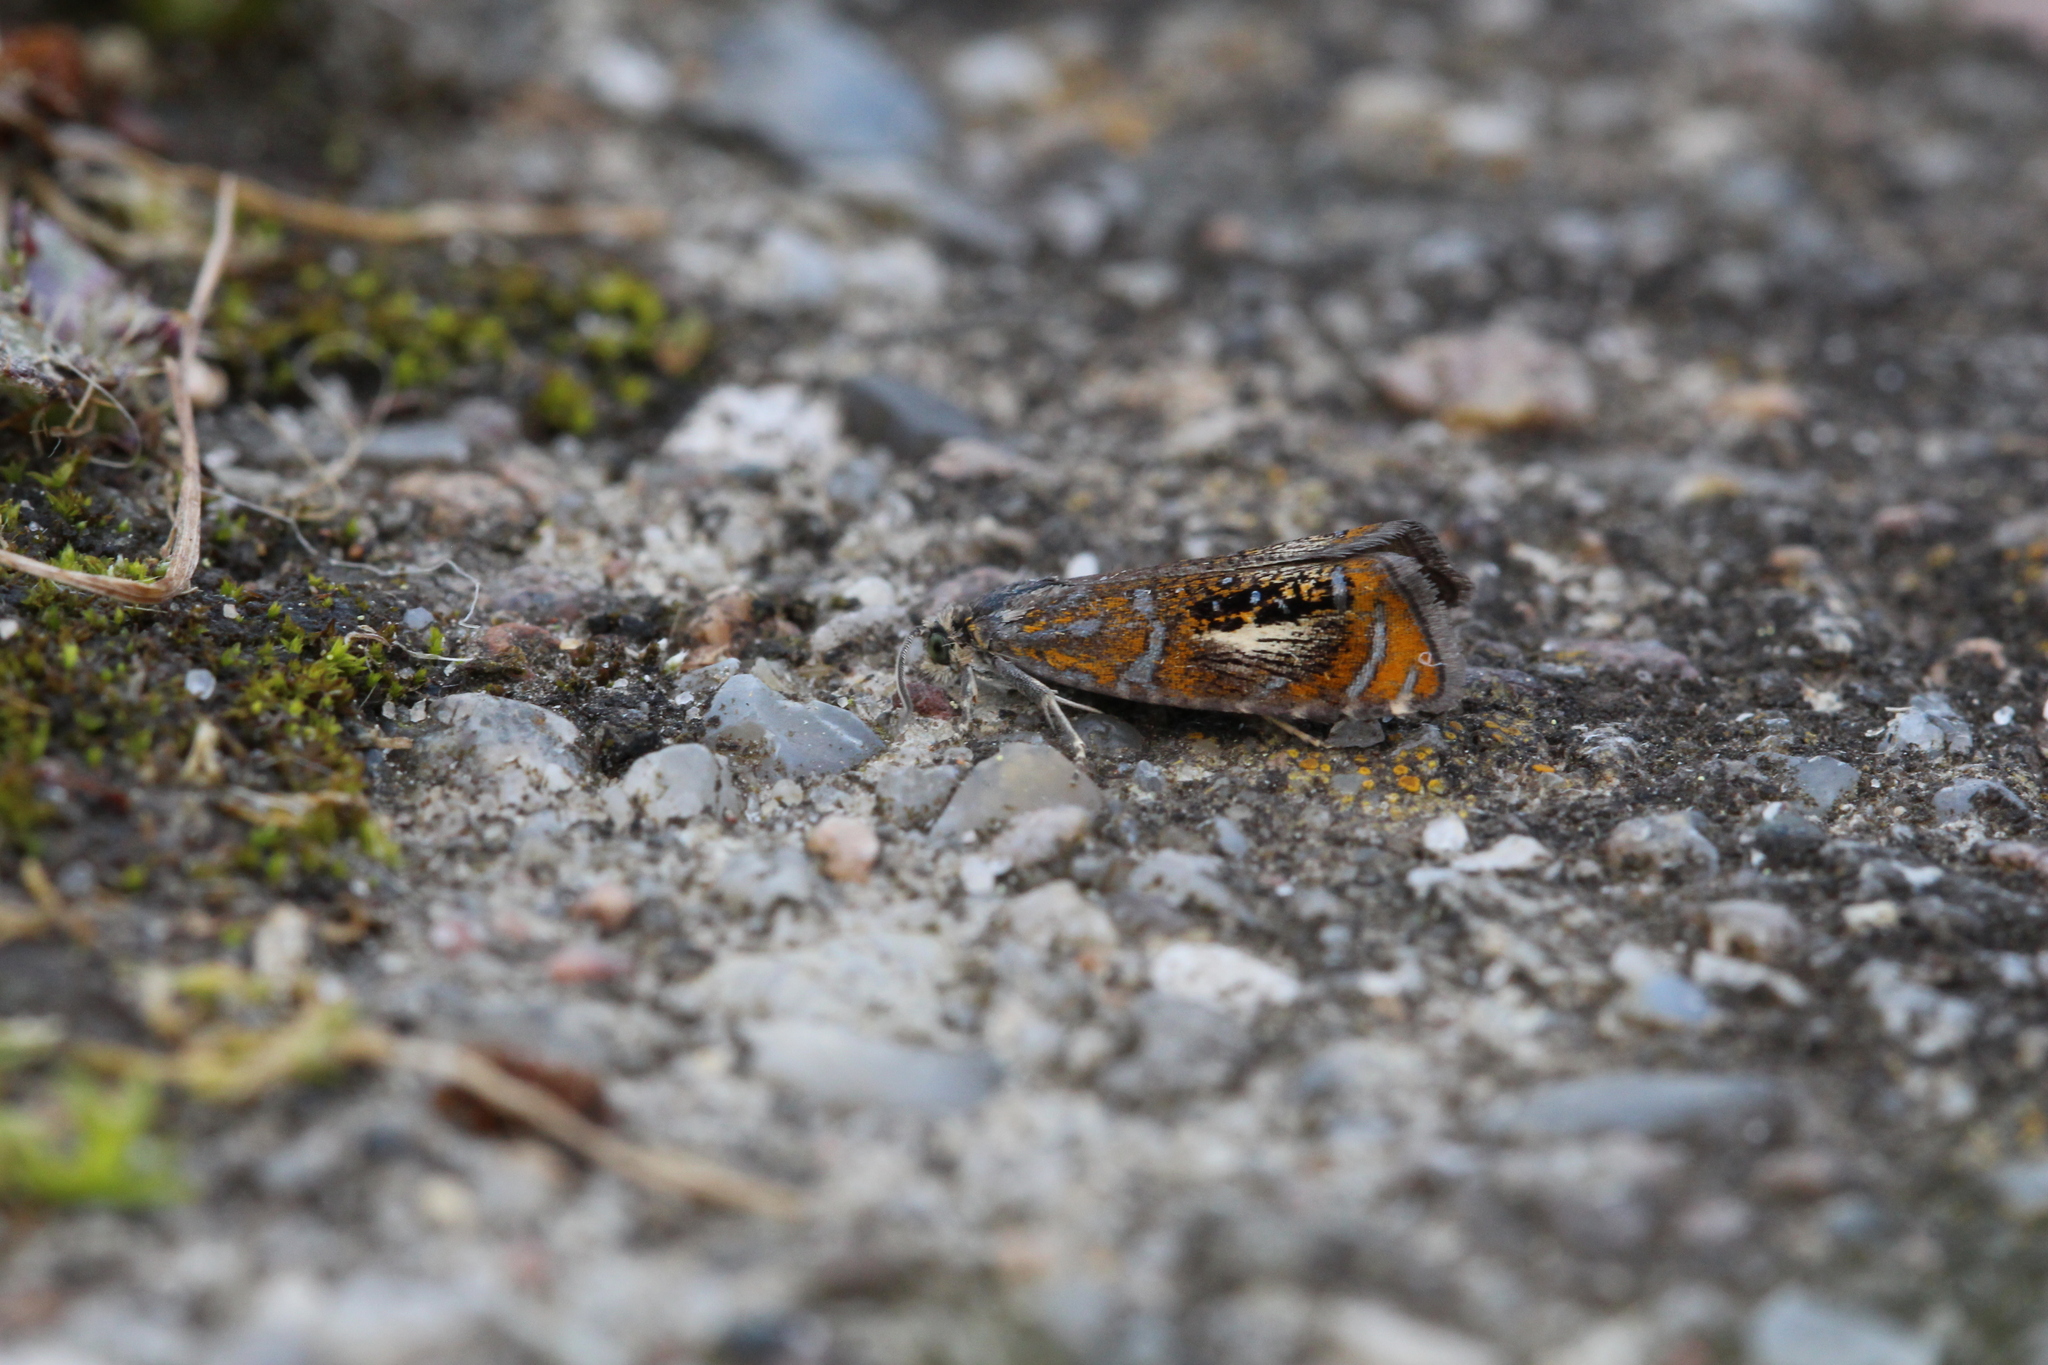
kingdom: Animalia
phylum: Arthropoda
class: Insecta
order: Lepidoptera
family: Tortricidae
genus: Olethreutes
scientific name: Olethreutes arcuella
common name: Arched marble
